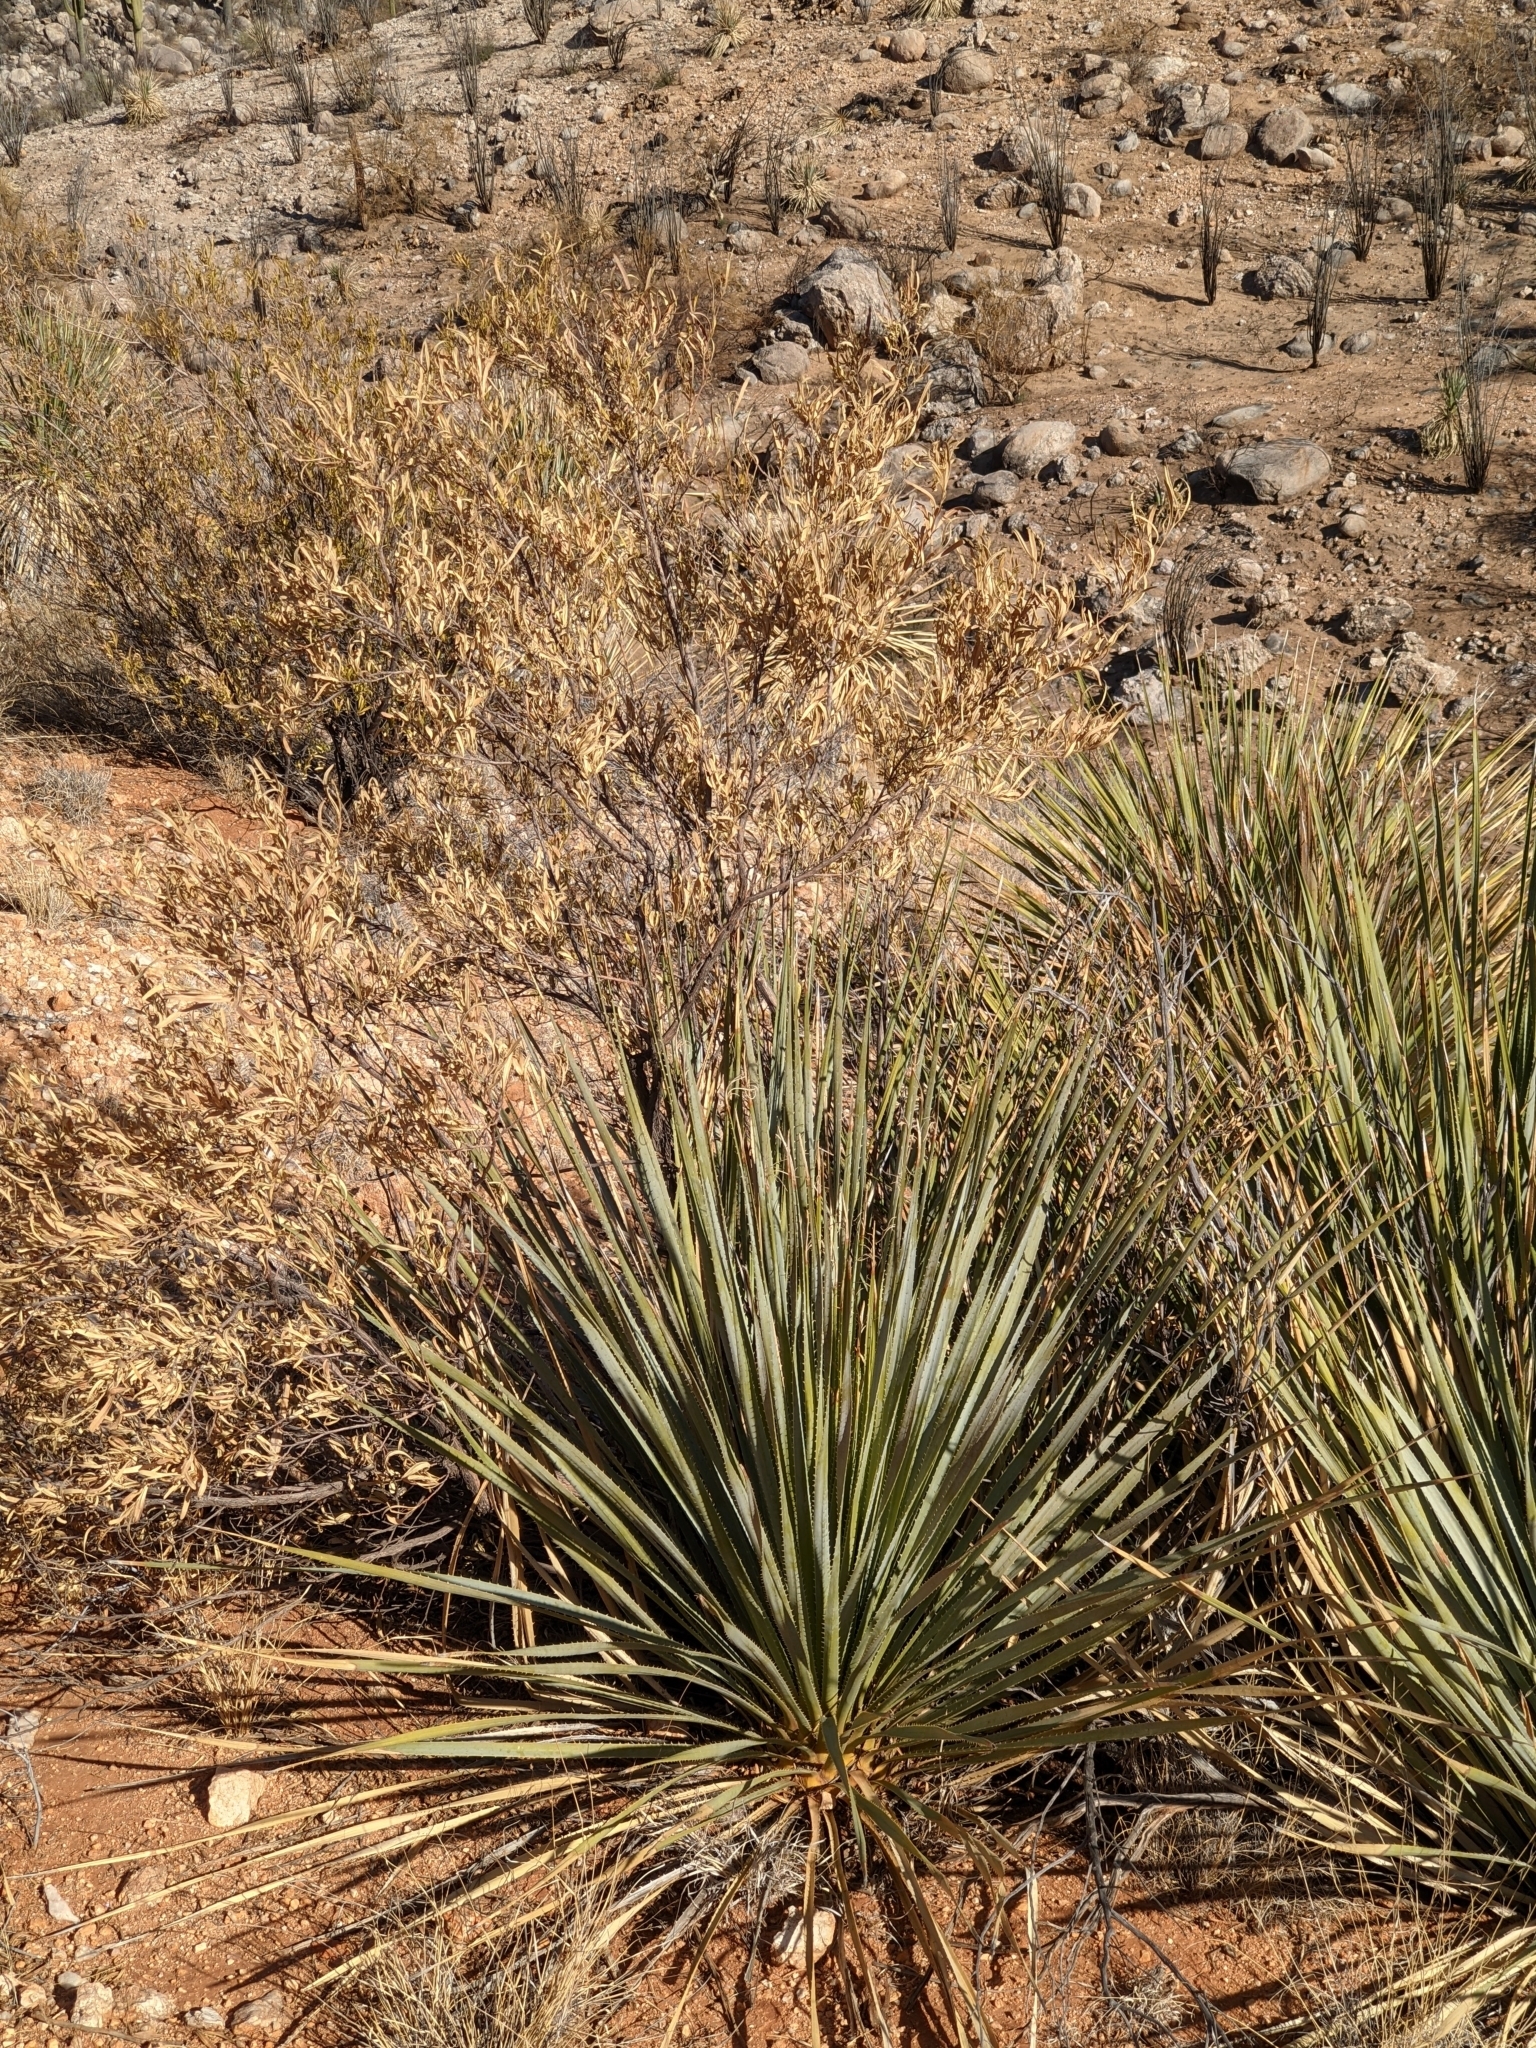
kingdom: Plantae
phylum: Tracheophyta
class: Liliopsida
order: Asparagales
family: Asparagaceae
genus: Dasylirion
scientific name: Dasylirion wheeleri
